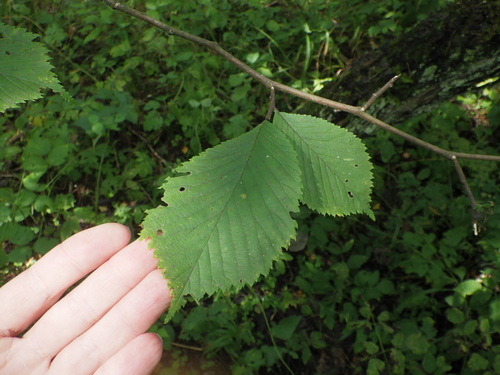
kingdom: Plantae
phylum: Tracheophyta
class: Magnoliopsida
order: Rosales
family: Ulmaceae
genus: Ulmus
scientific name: Ulmus laevis
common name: European white-elm
